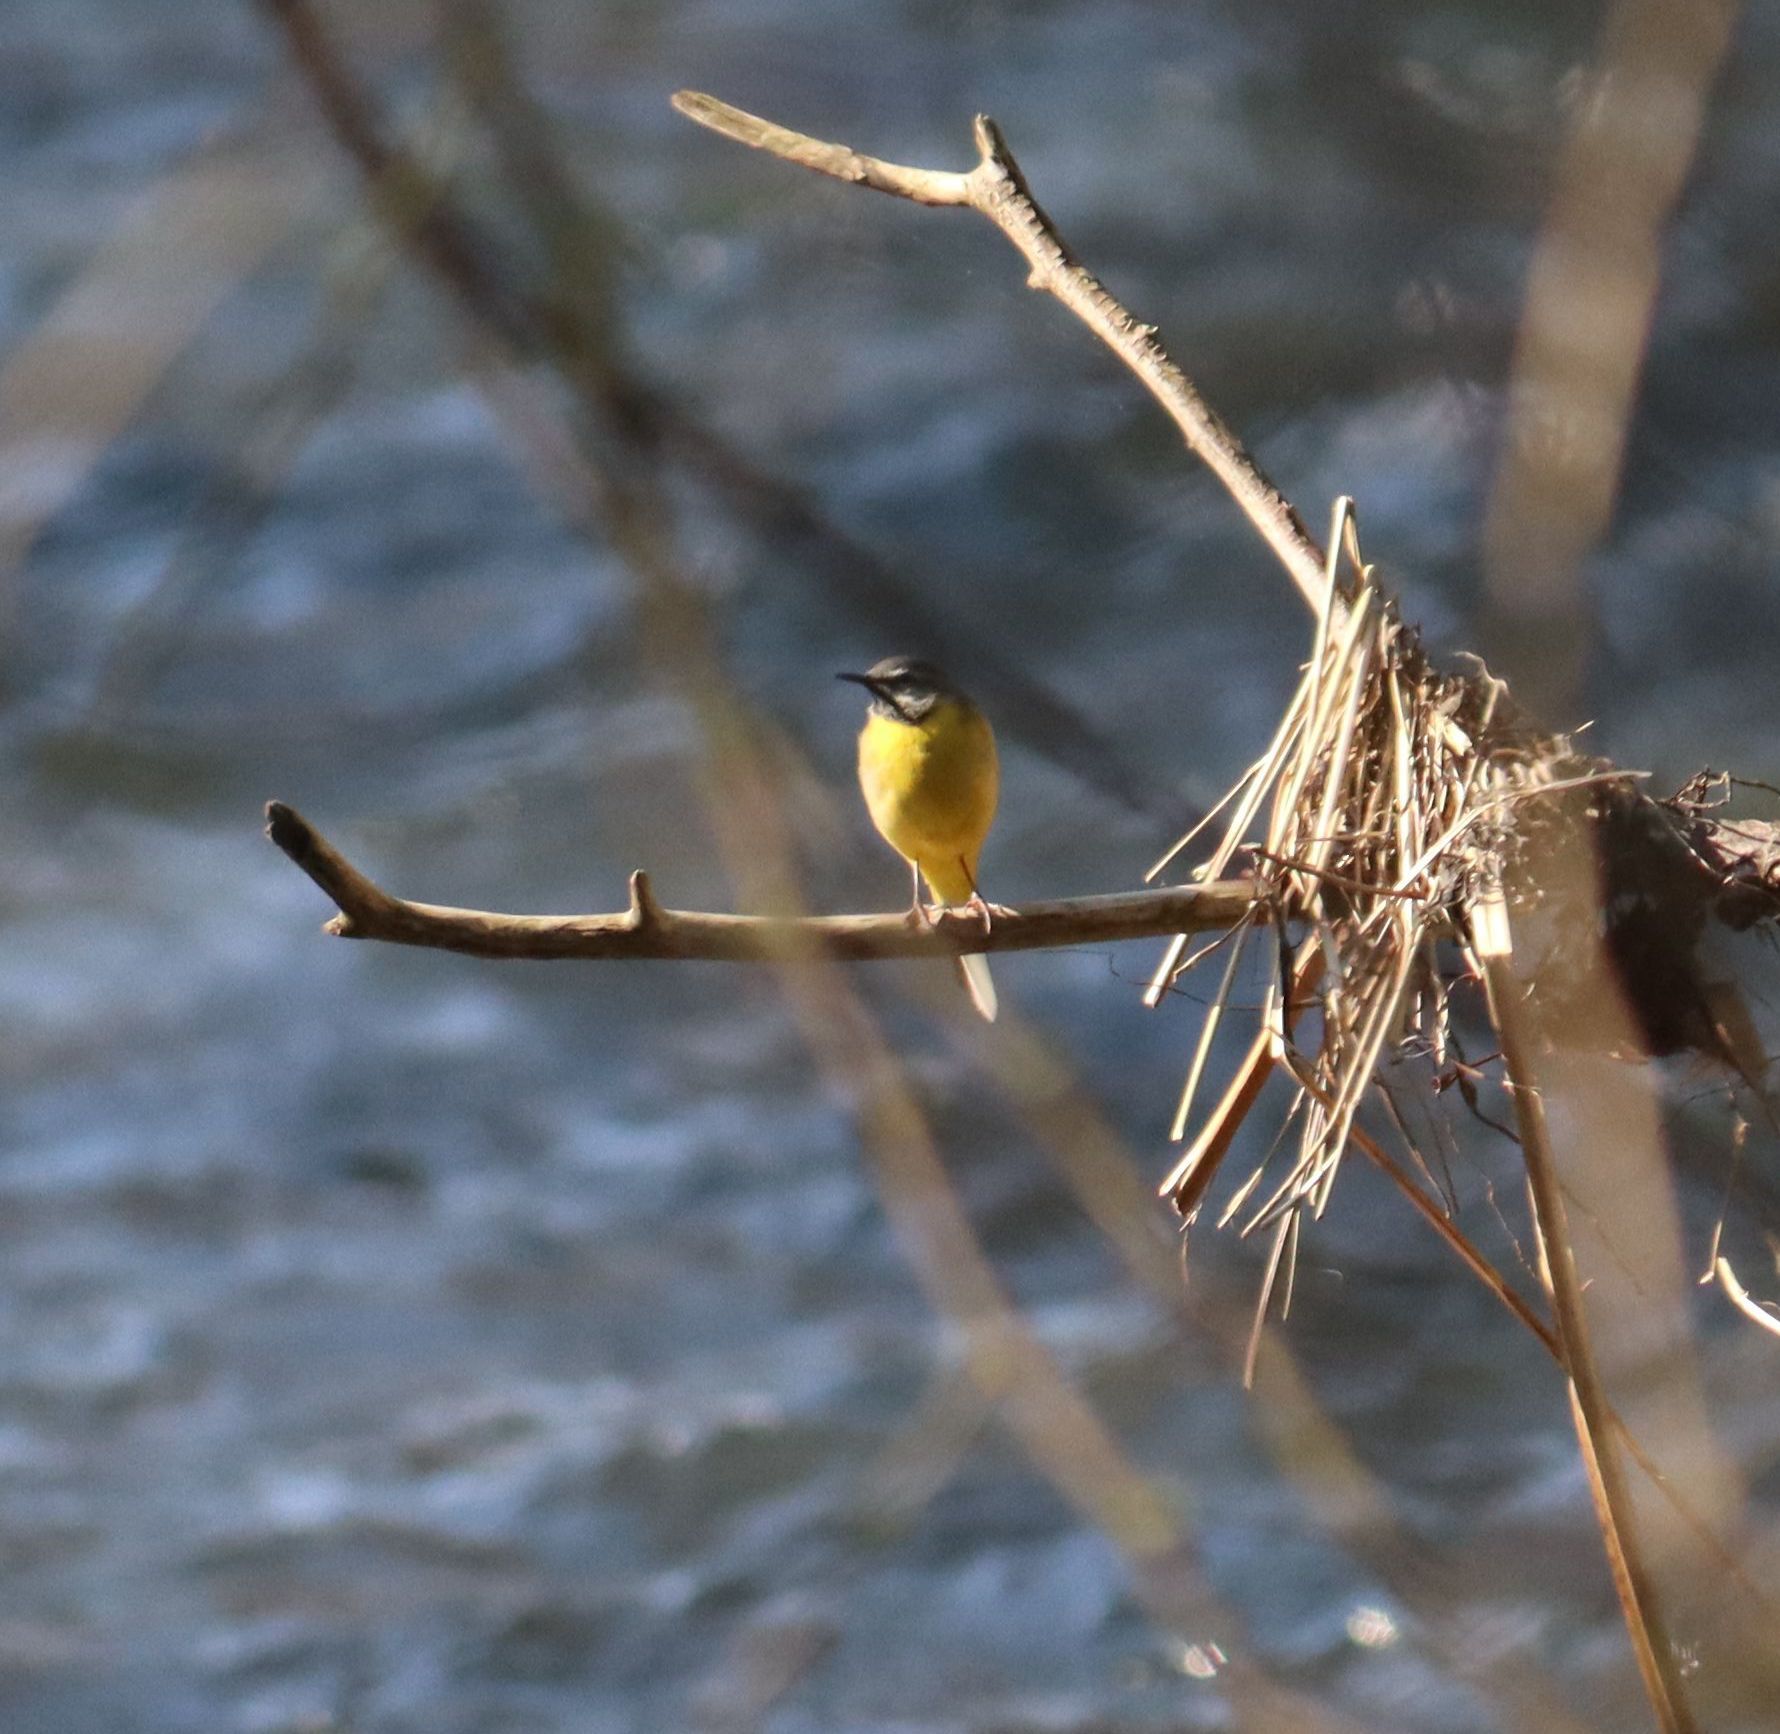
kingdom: Animalia
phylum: Chordata
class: Aves
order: Passeriformes
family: Motacillidae
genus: Motacilla
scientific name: Motacilla cinerea
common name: Grey wagtail
